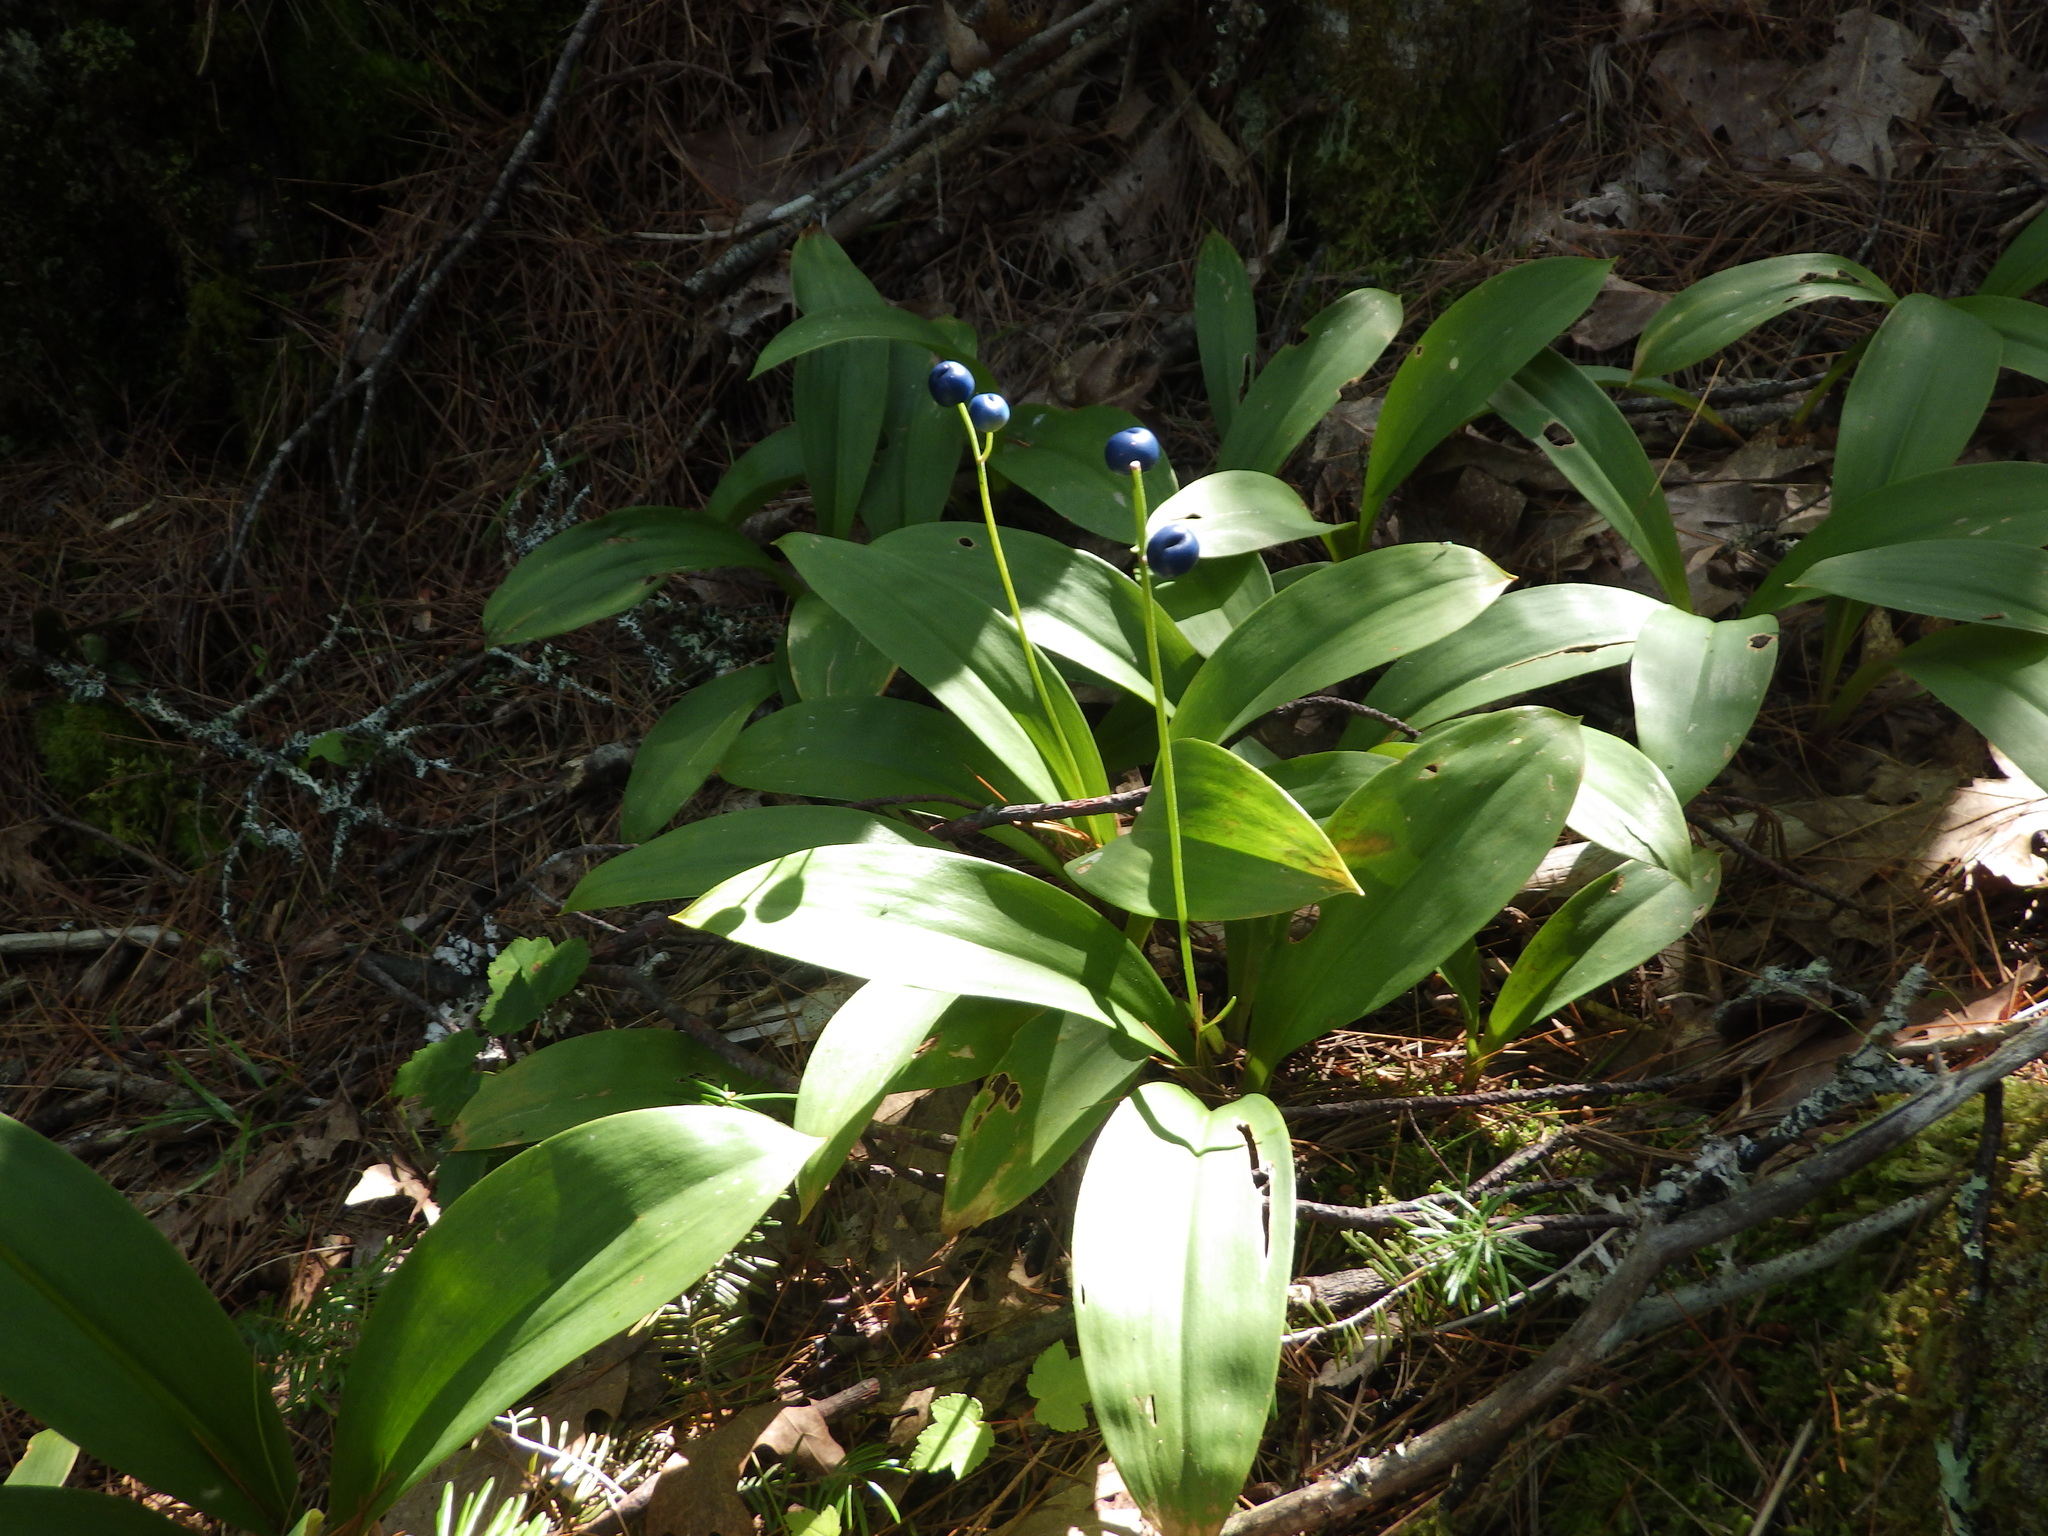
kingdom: Plantae
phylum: Tracheophyta
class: Liliopsida
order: Liliales
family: Liliaceae
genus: Clintonia
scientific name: Clintonia borealis
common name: Yellow clintonia
